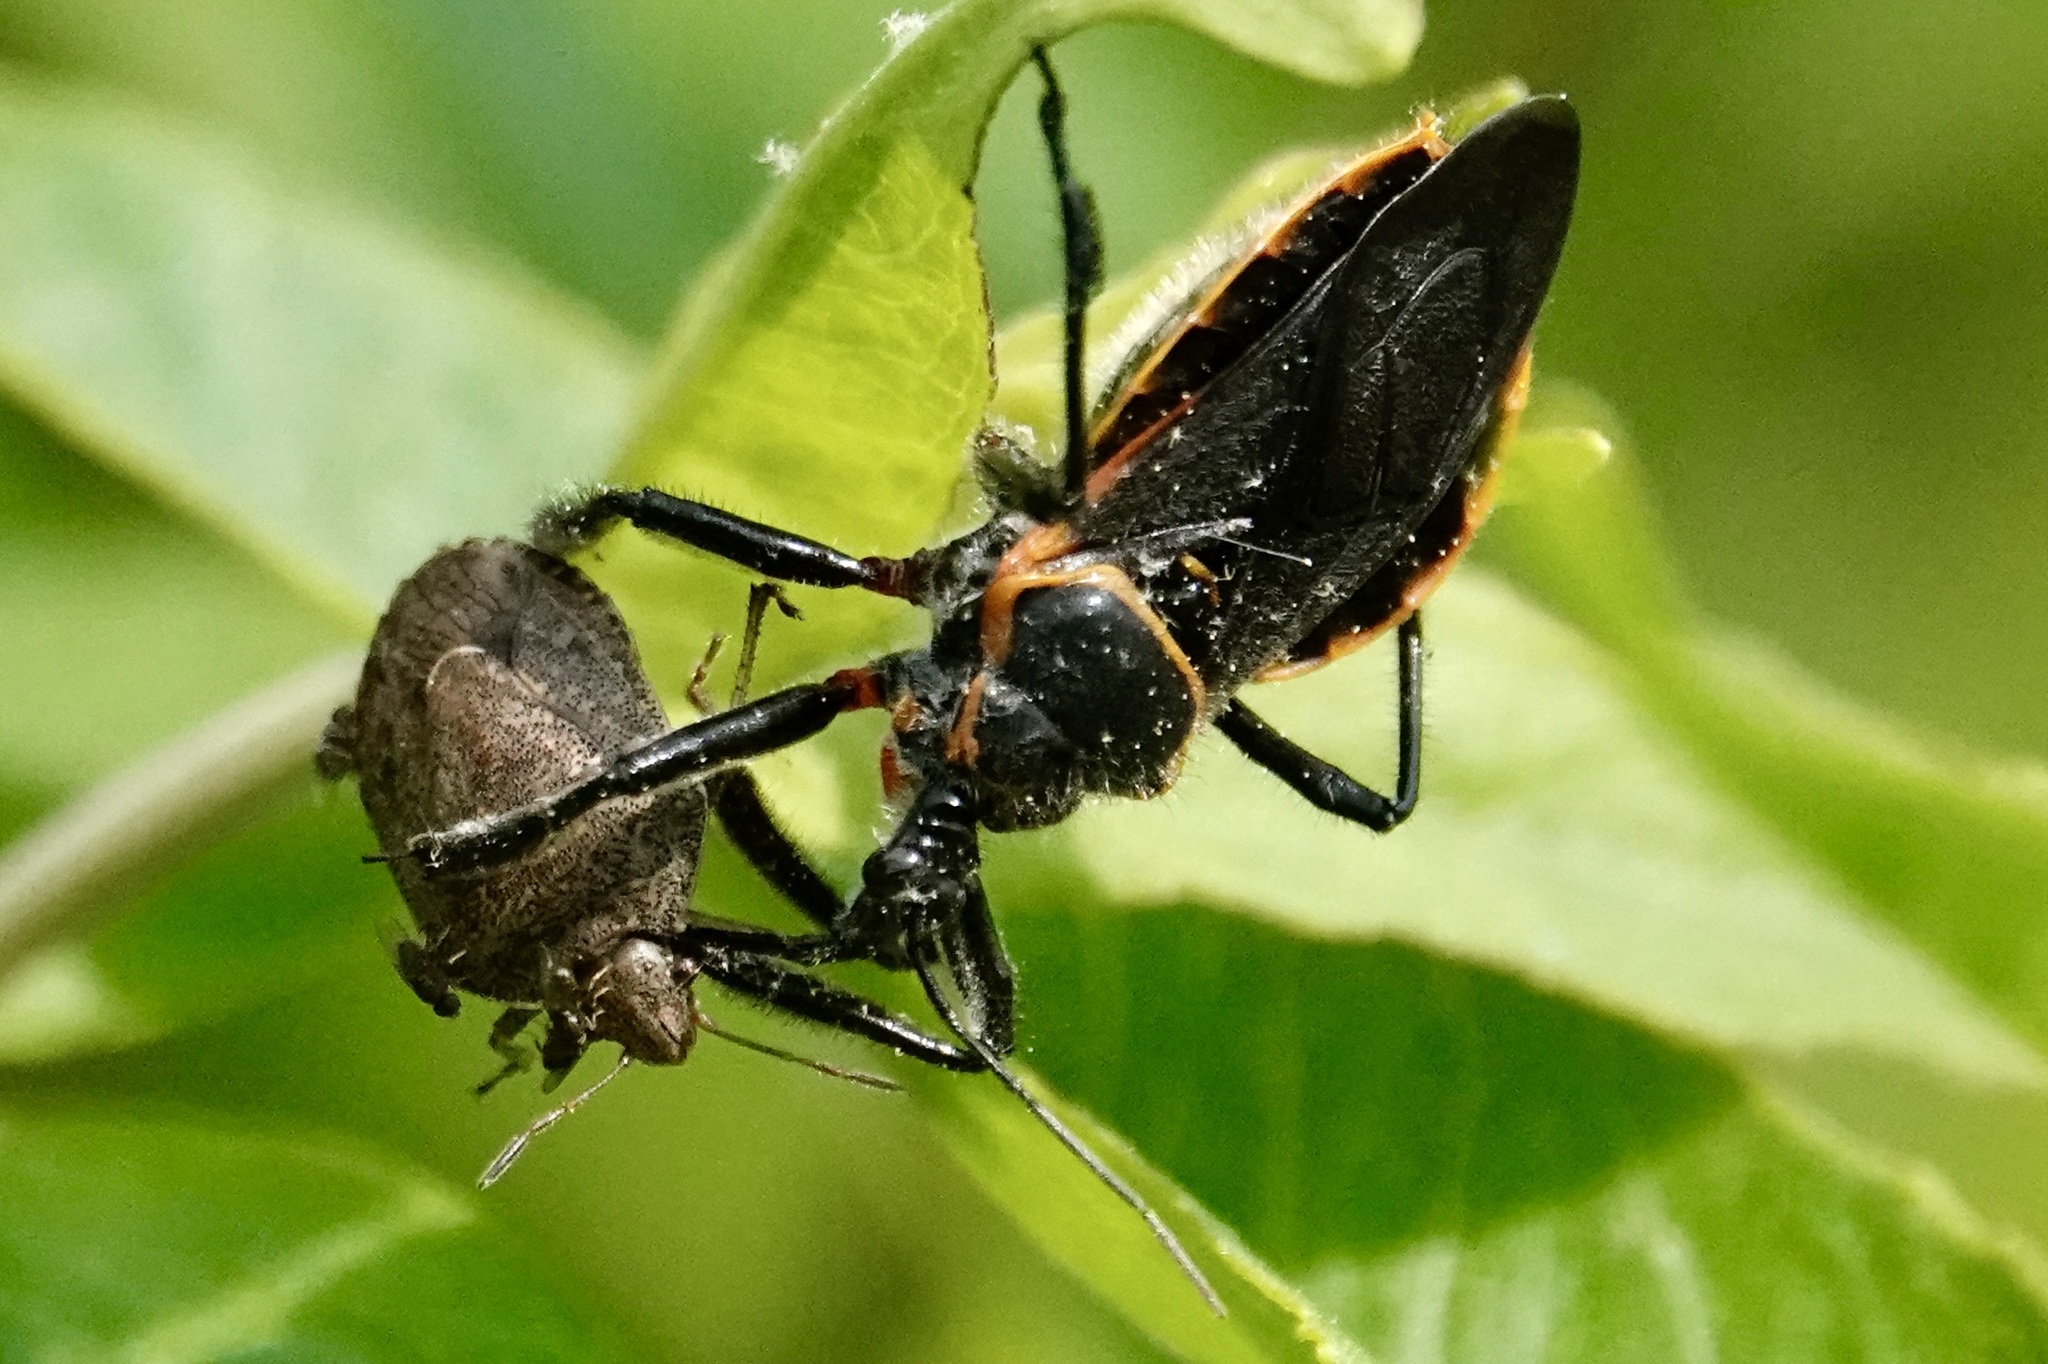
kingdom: Animalia
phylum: Arthropoda
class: Insecta
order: Hemiptera
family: Reduviidae
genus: Apiomerus
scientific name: Apiomerus crassipes
